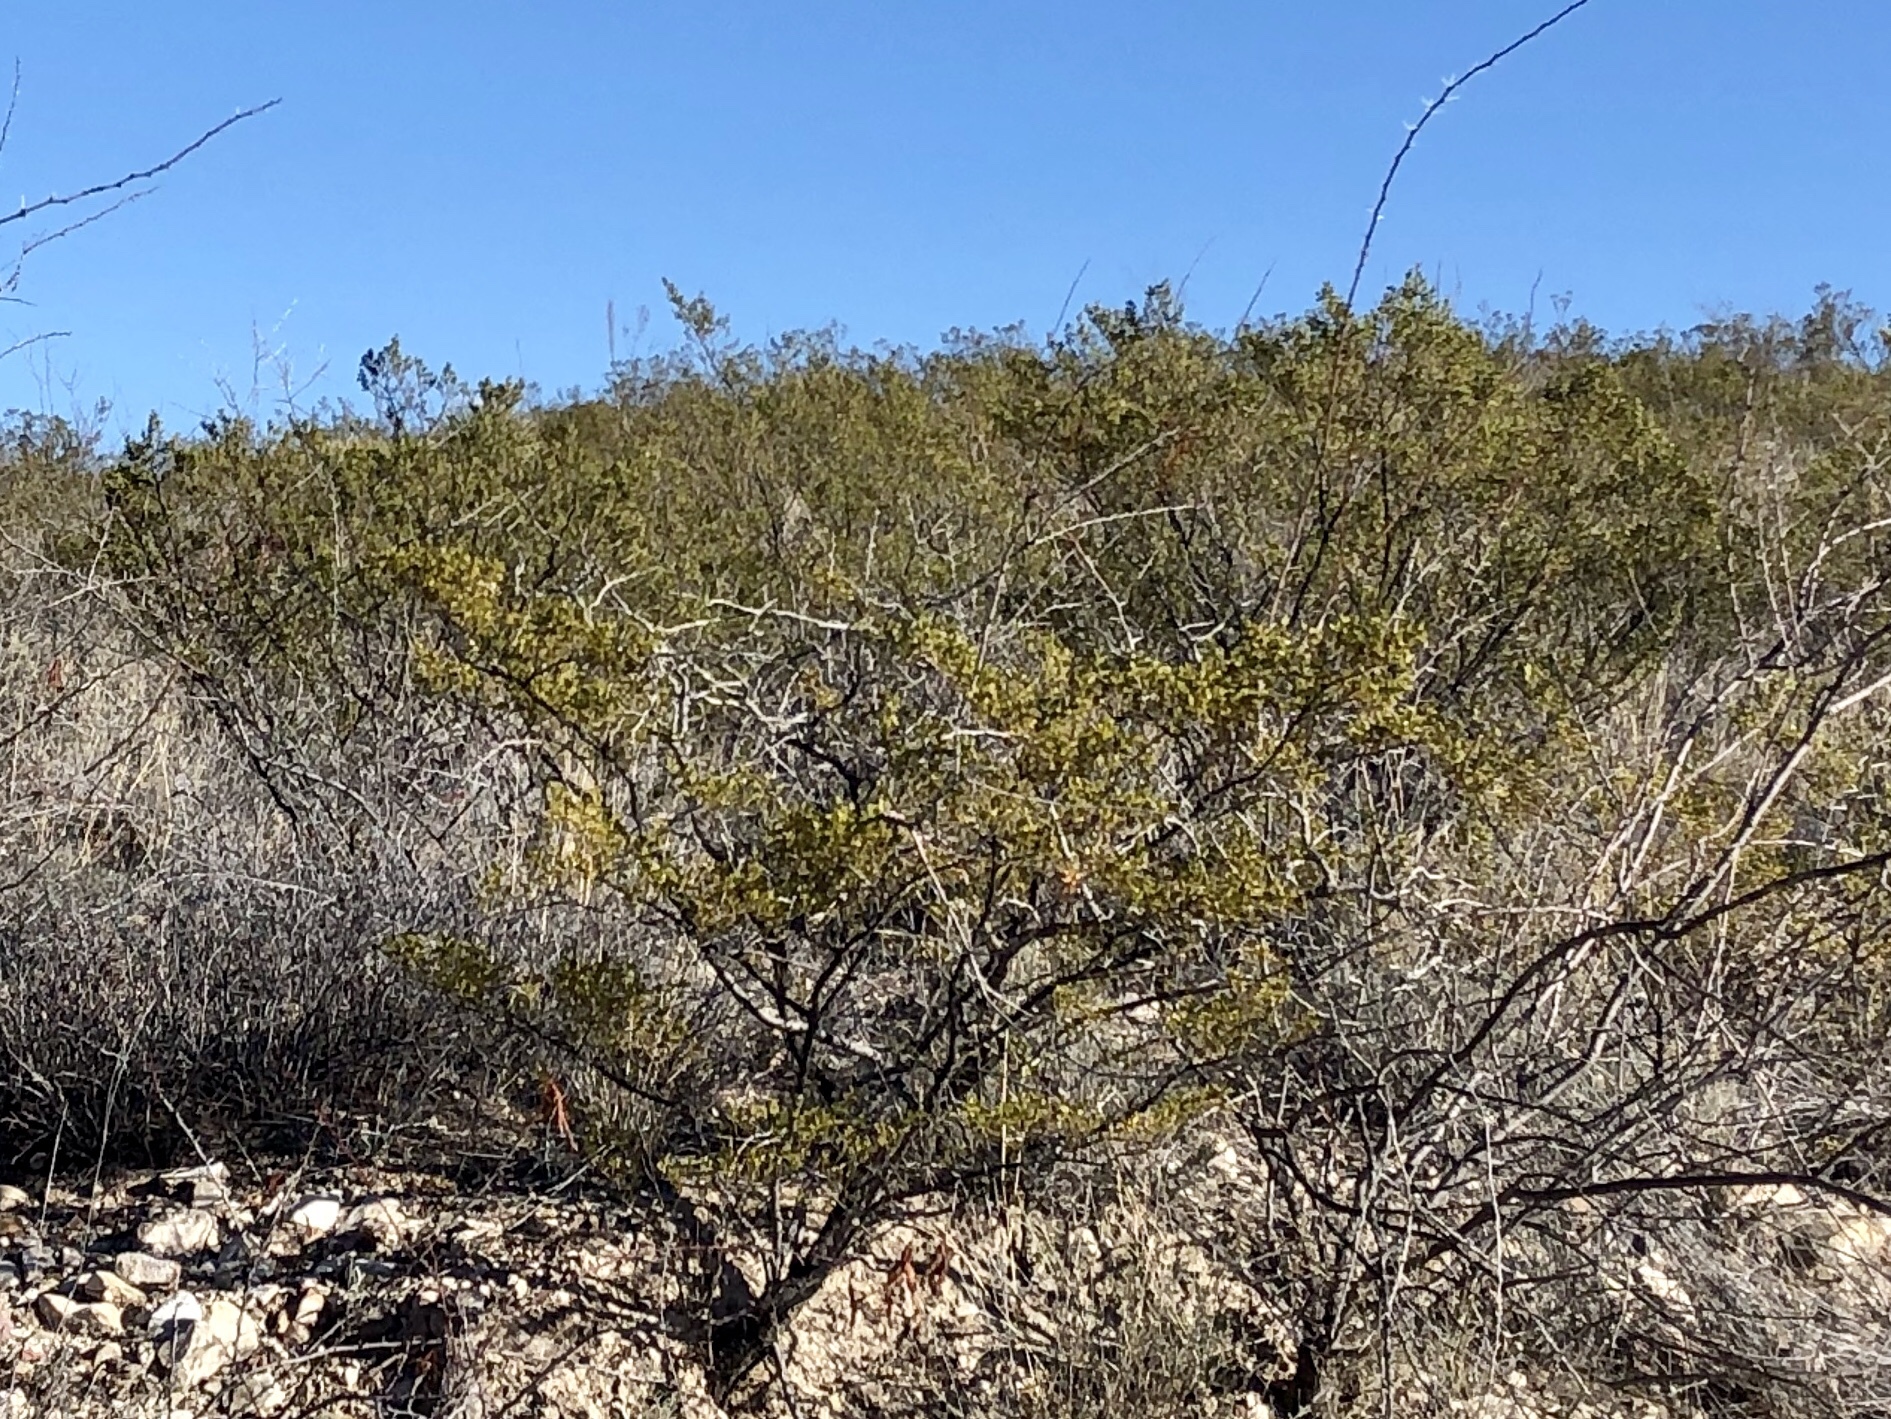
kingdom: Plantae
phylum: Tracheophyta
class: Magnoliopsida
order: Zygophyllales
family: Zygophyllaceae
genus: Larrea
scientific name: Larrea tridentata
